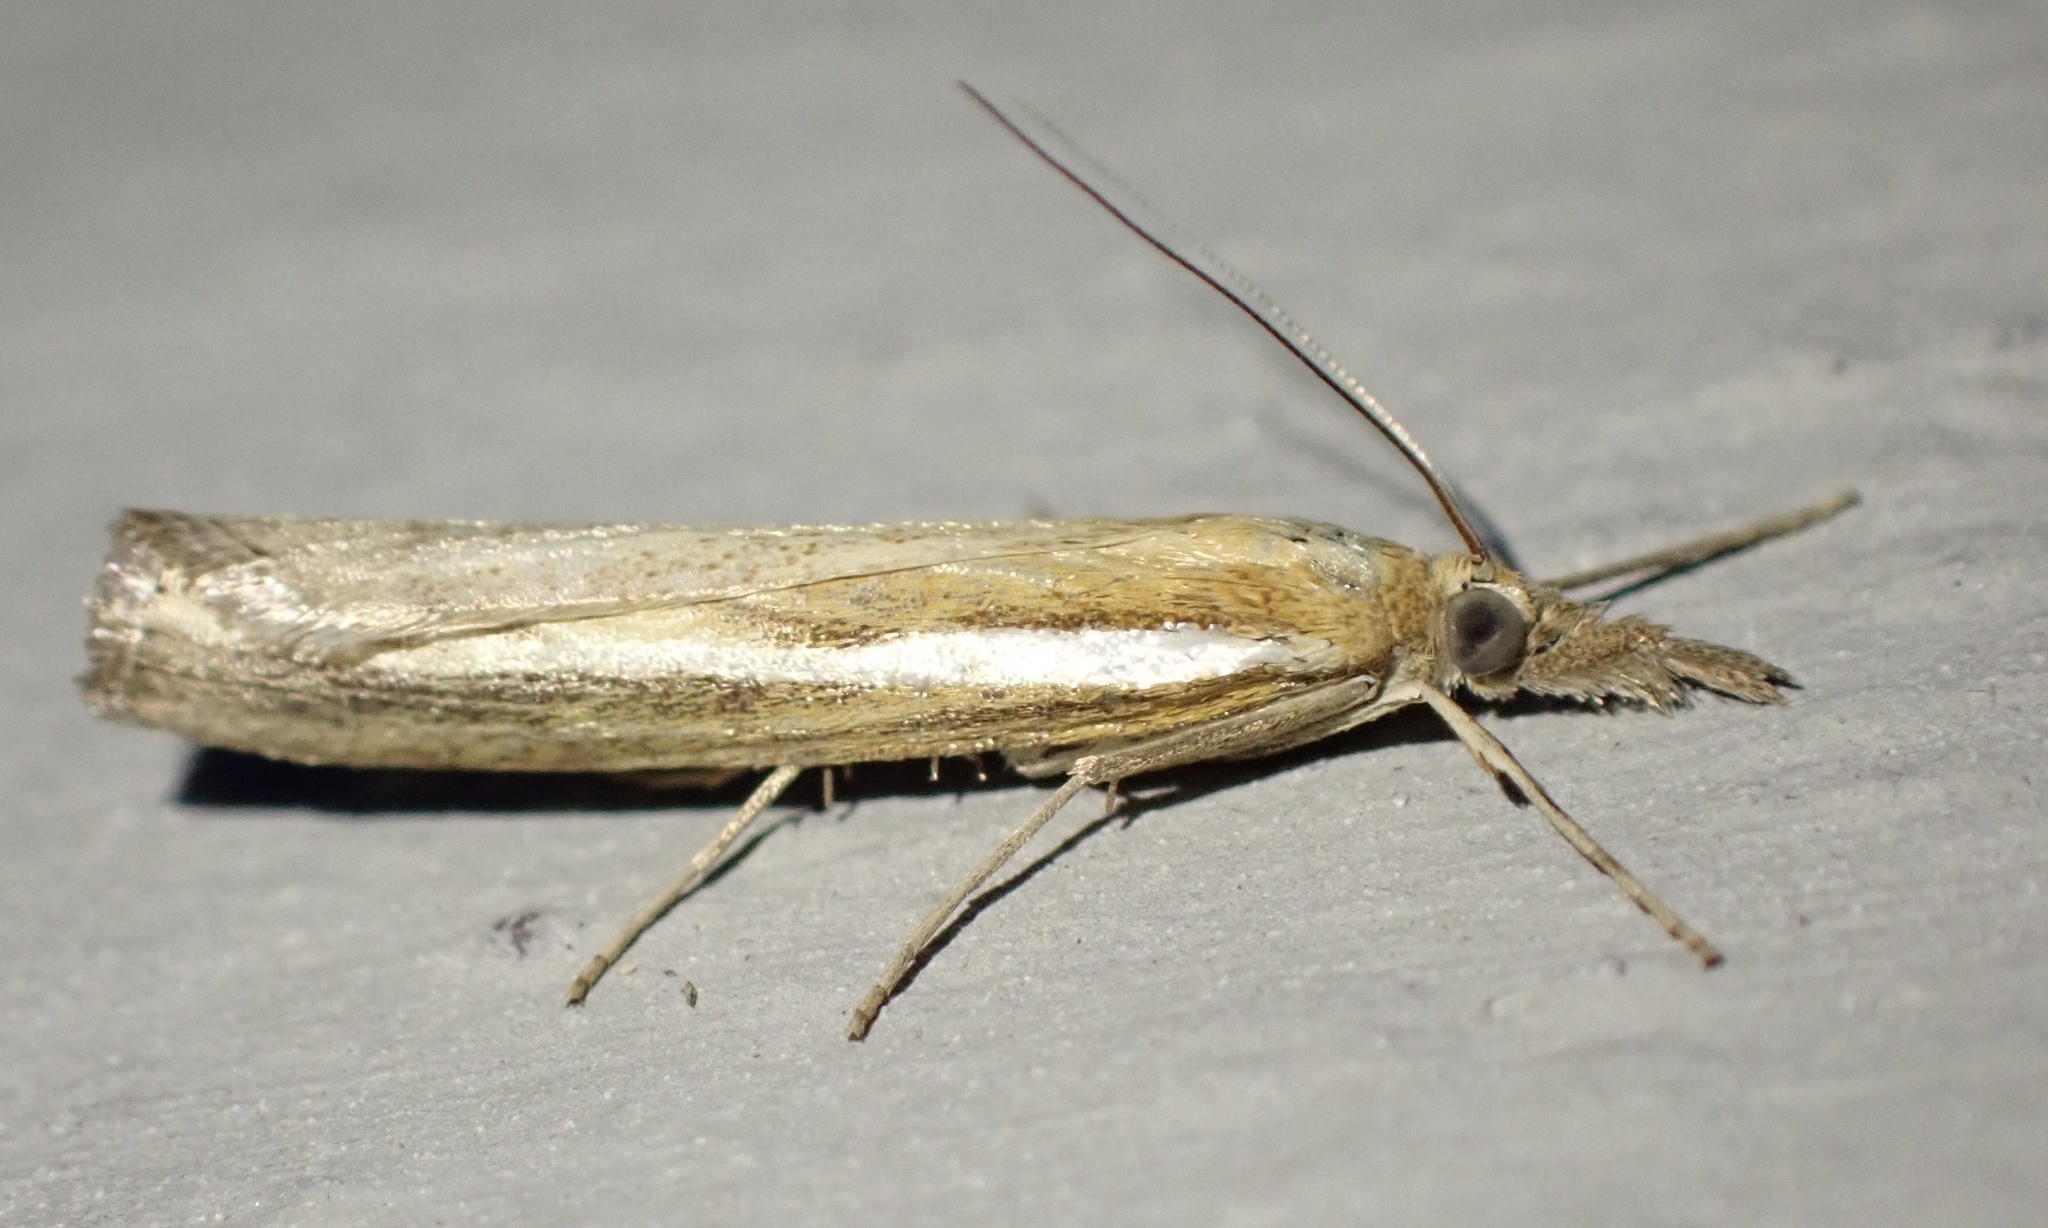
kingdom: Animalia
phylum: Arthropoda
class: Insecta
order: Lepidoptera
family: Crambidae
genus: Agriphila
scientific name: Agriphila tristellus
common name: Common grass-veneer
